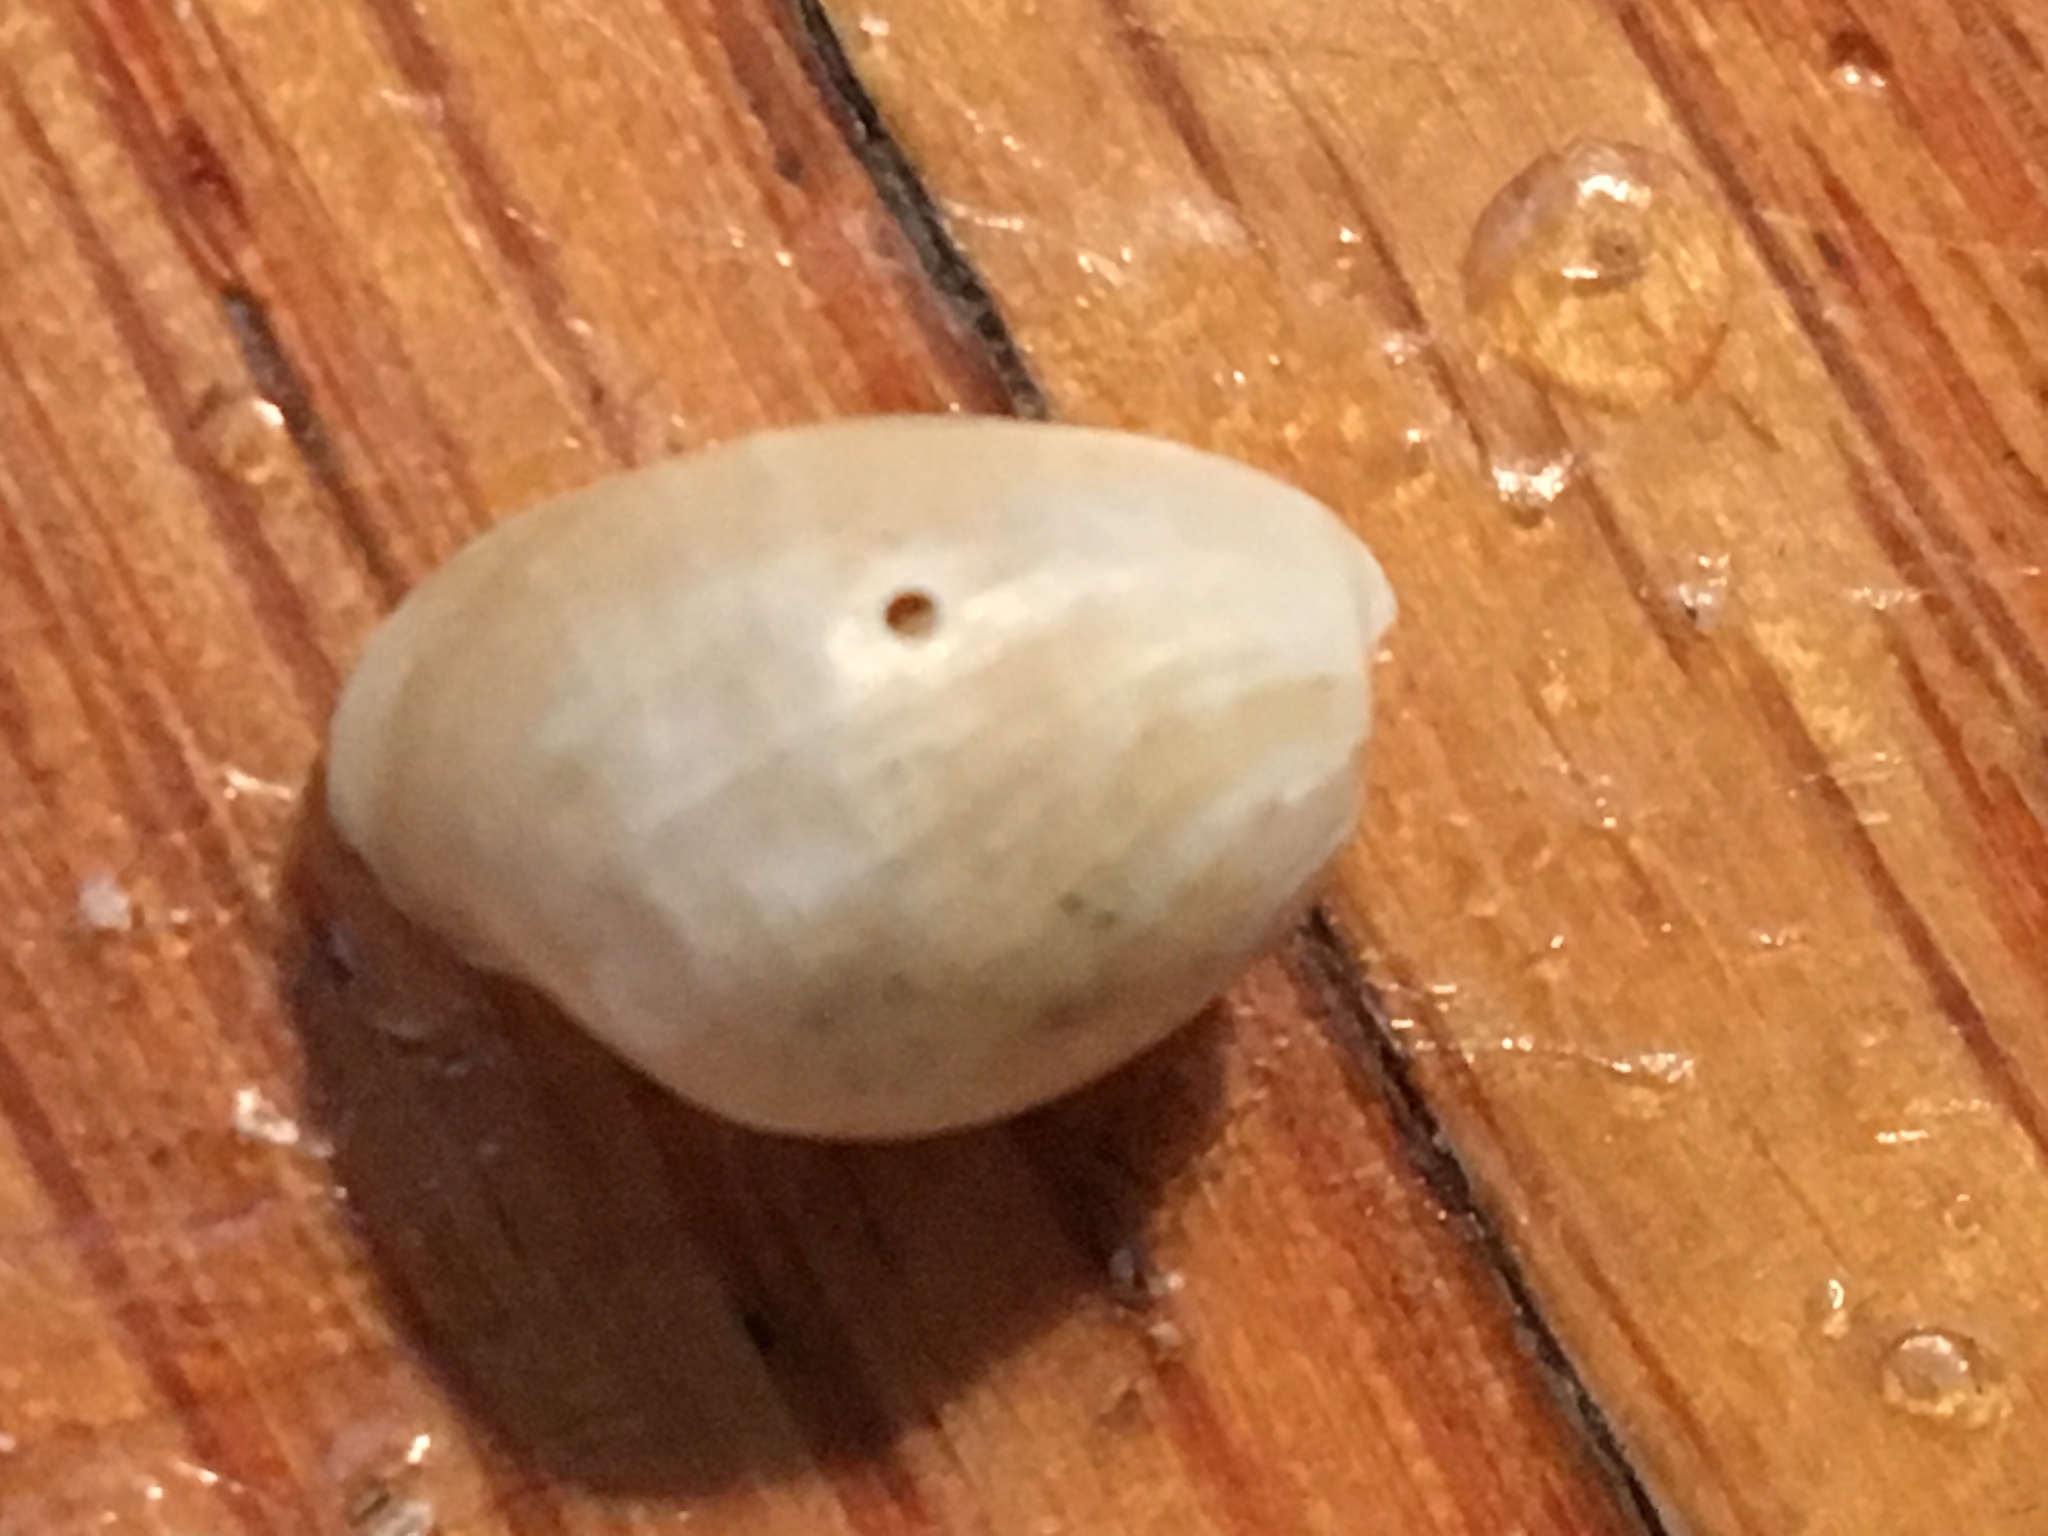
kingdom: Animalia
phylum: Mollusca
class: Gastropoda
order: Neogastropoda
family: Muricidae
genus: Urosalpinx
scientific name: Urosalpinx cinerea
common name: American sting winkle
